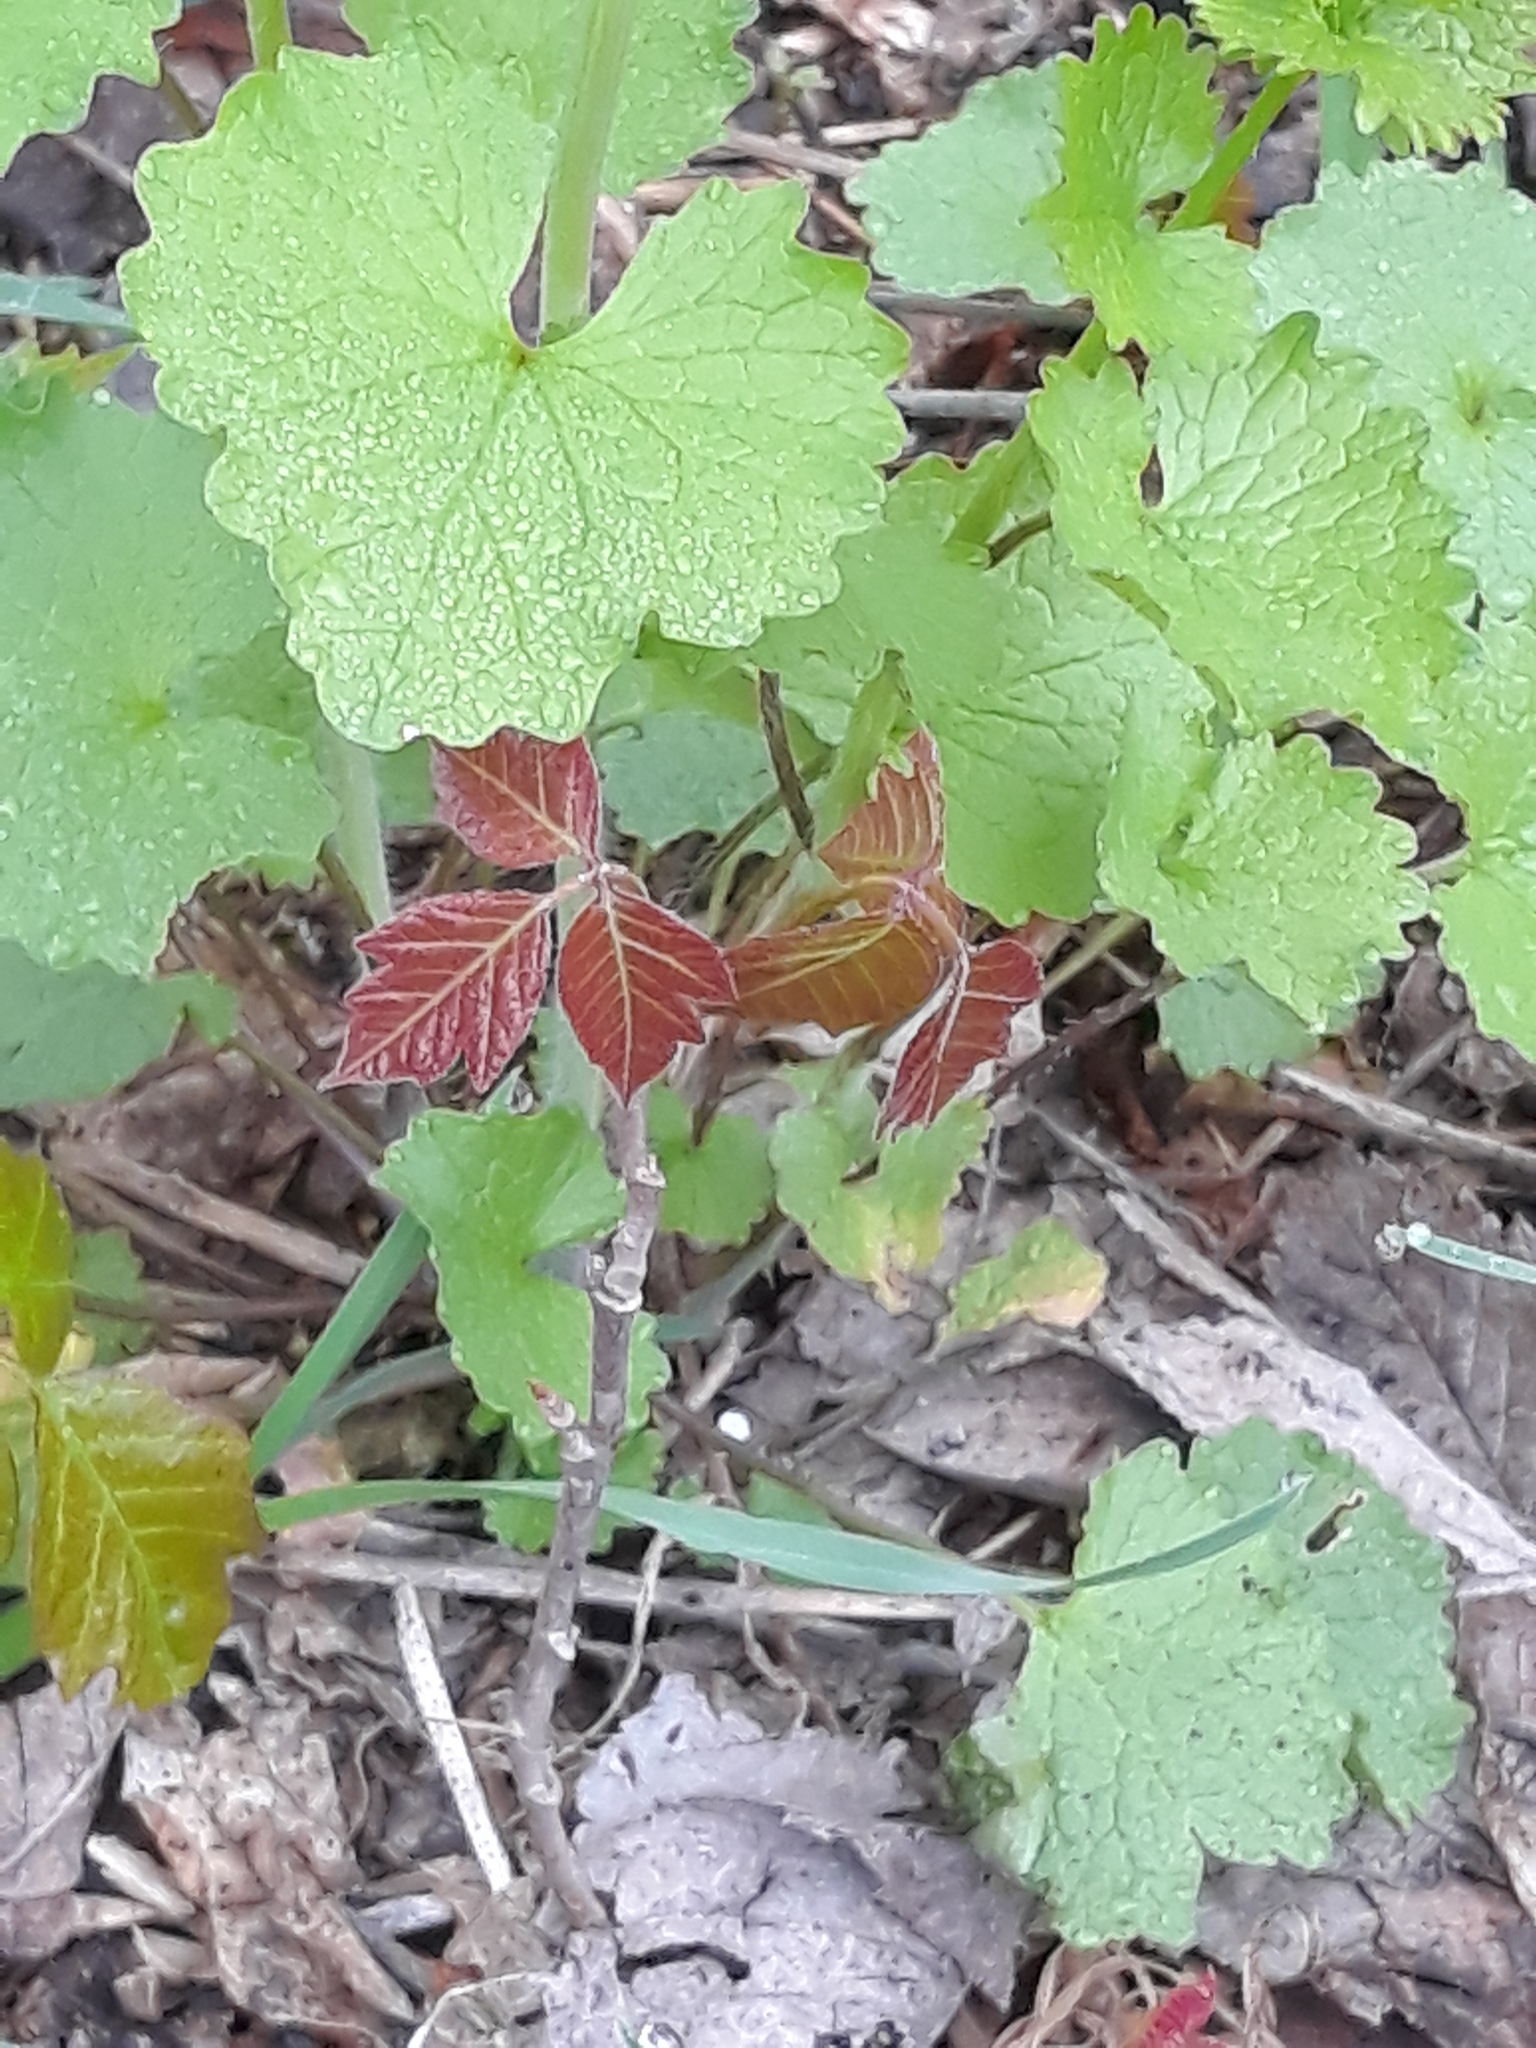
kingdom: Plantae
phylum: Tracheophyta
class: Magnoliopsida
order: Sapindales
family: Anacardiaceae
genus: Toxicodendron
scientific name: Toxicodendron radicans
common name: Poison ivy
